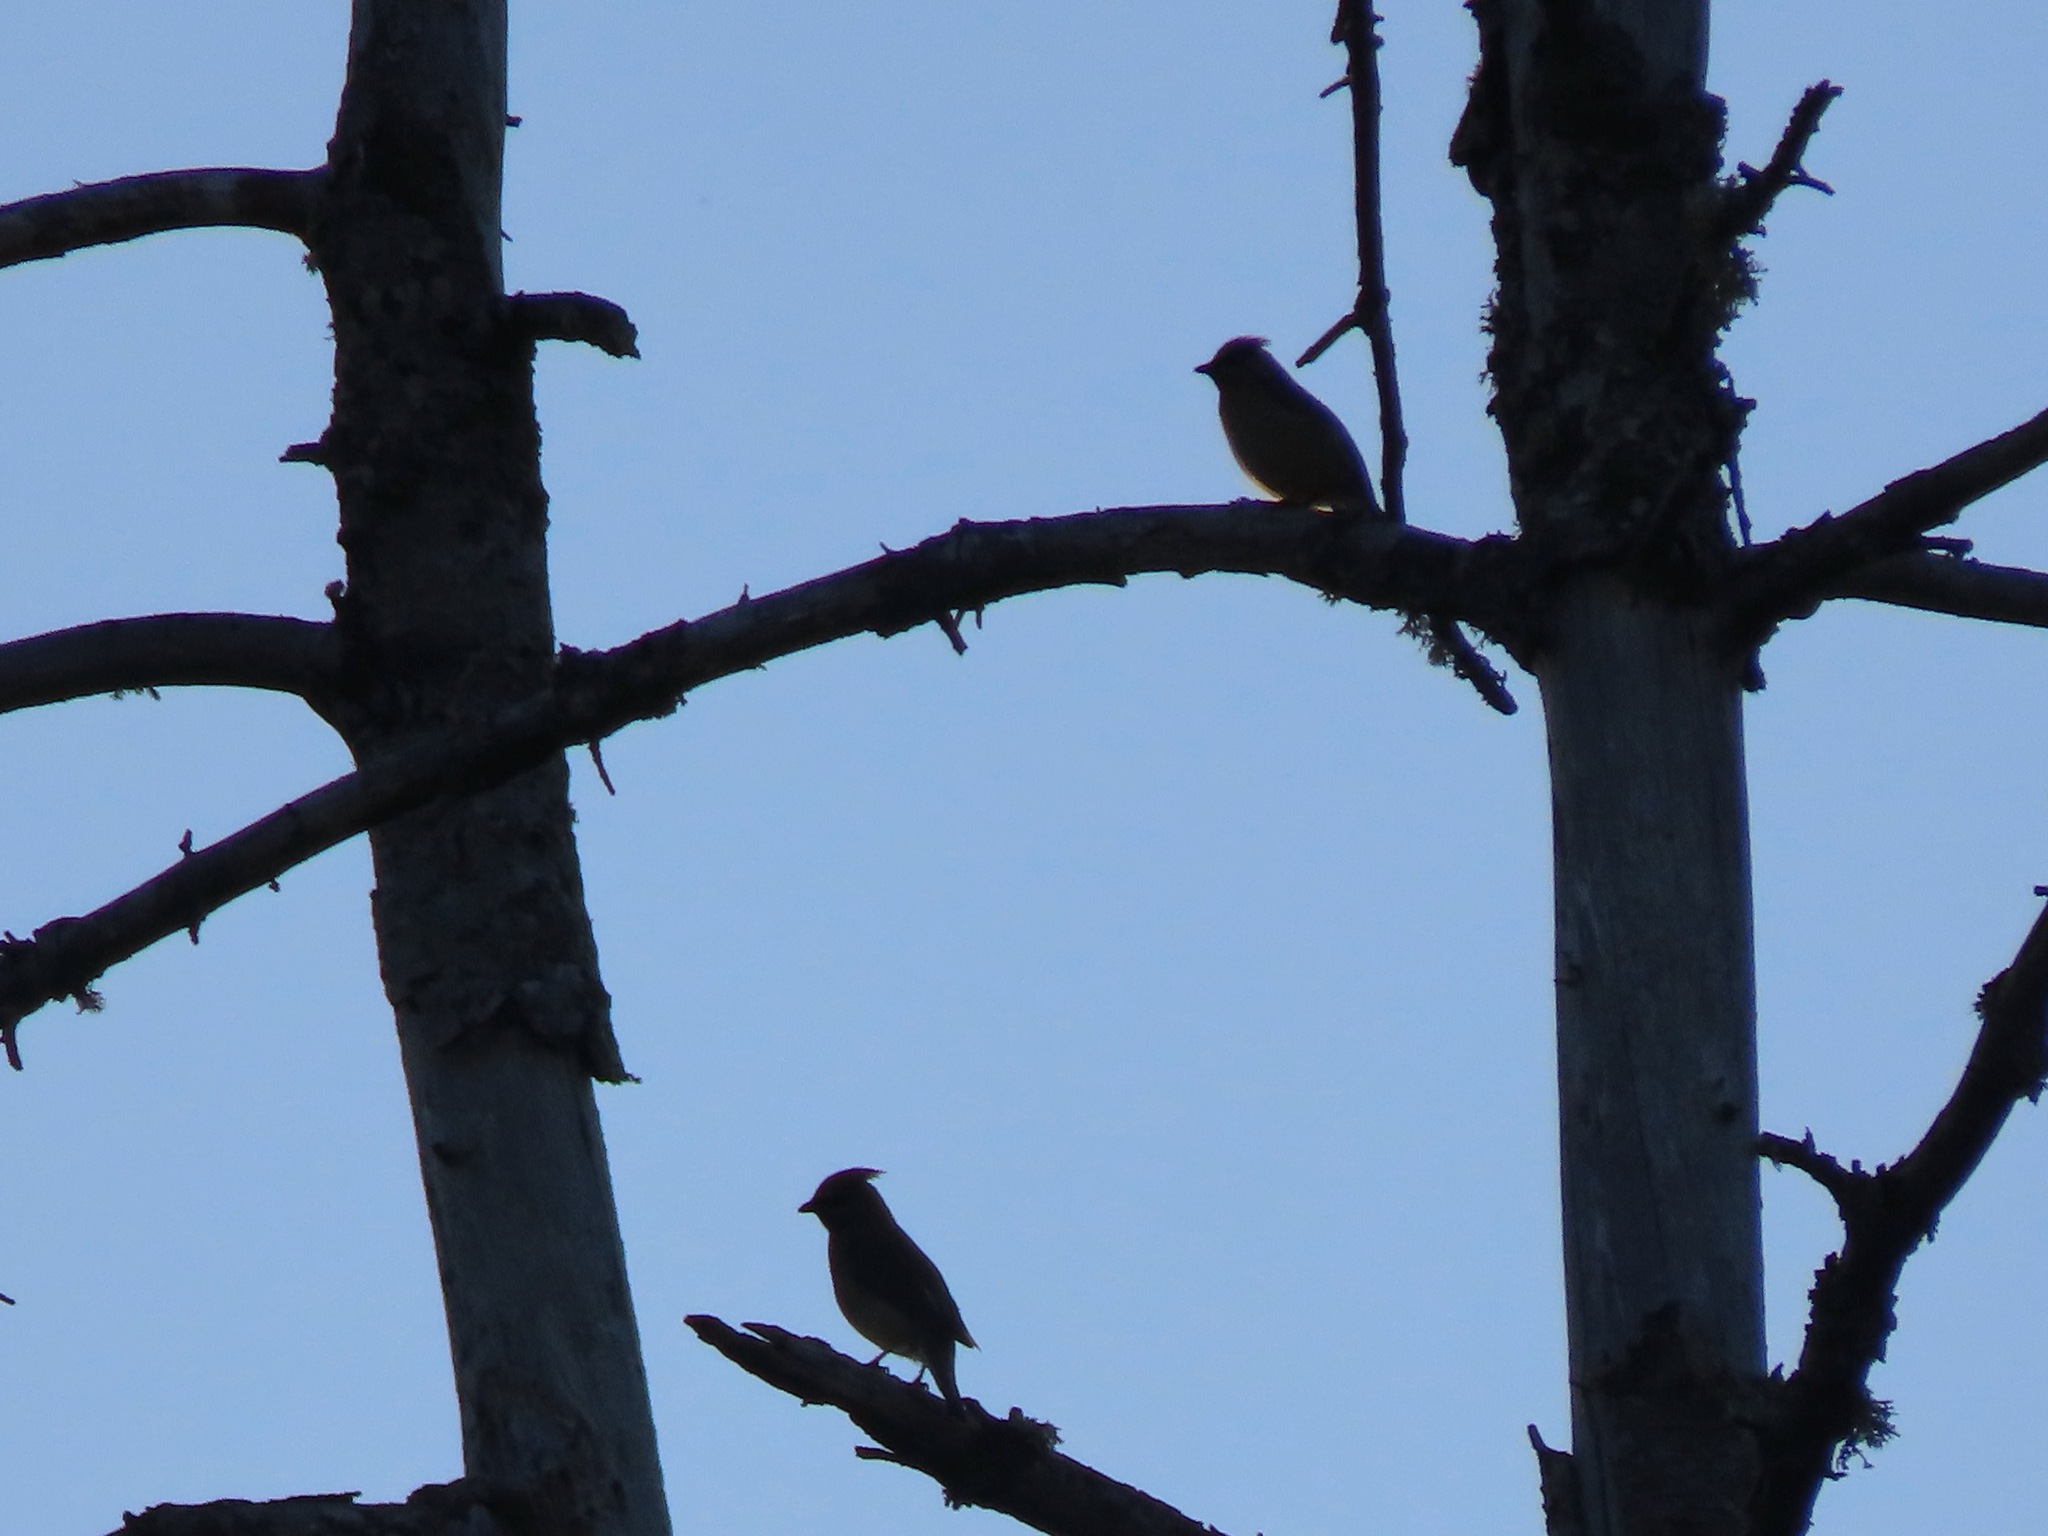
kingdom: Animalia
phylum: Chordata
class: Aves
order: Passeriformes
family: Bombycillidae
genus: Bombycilla
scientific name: Bombycilla cedrorum
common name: Cedar waxwing
